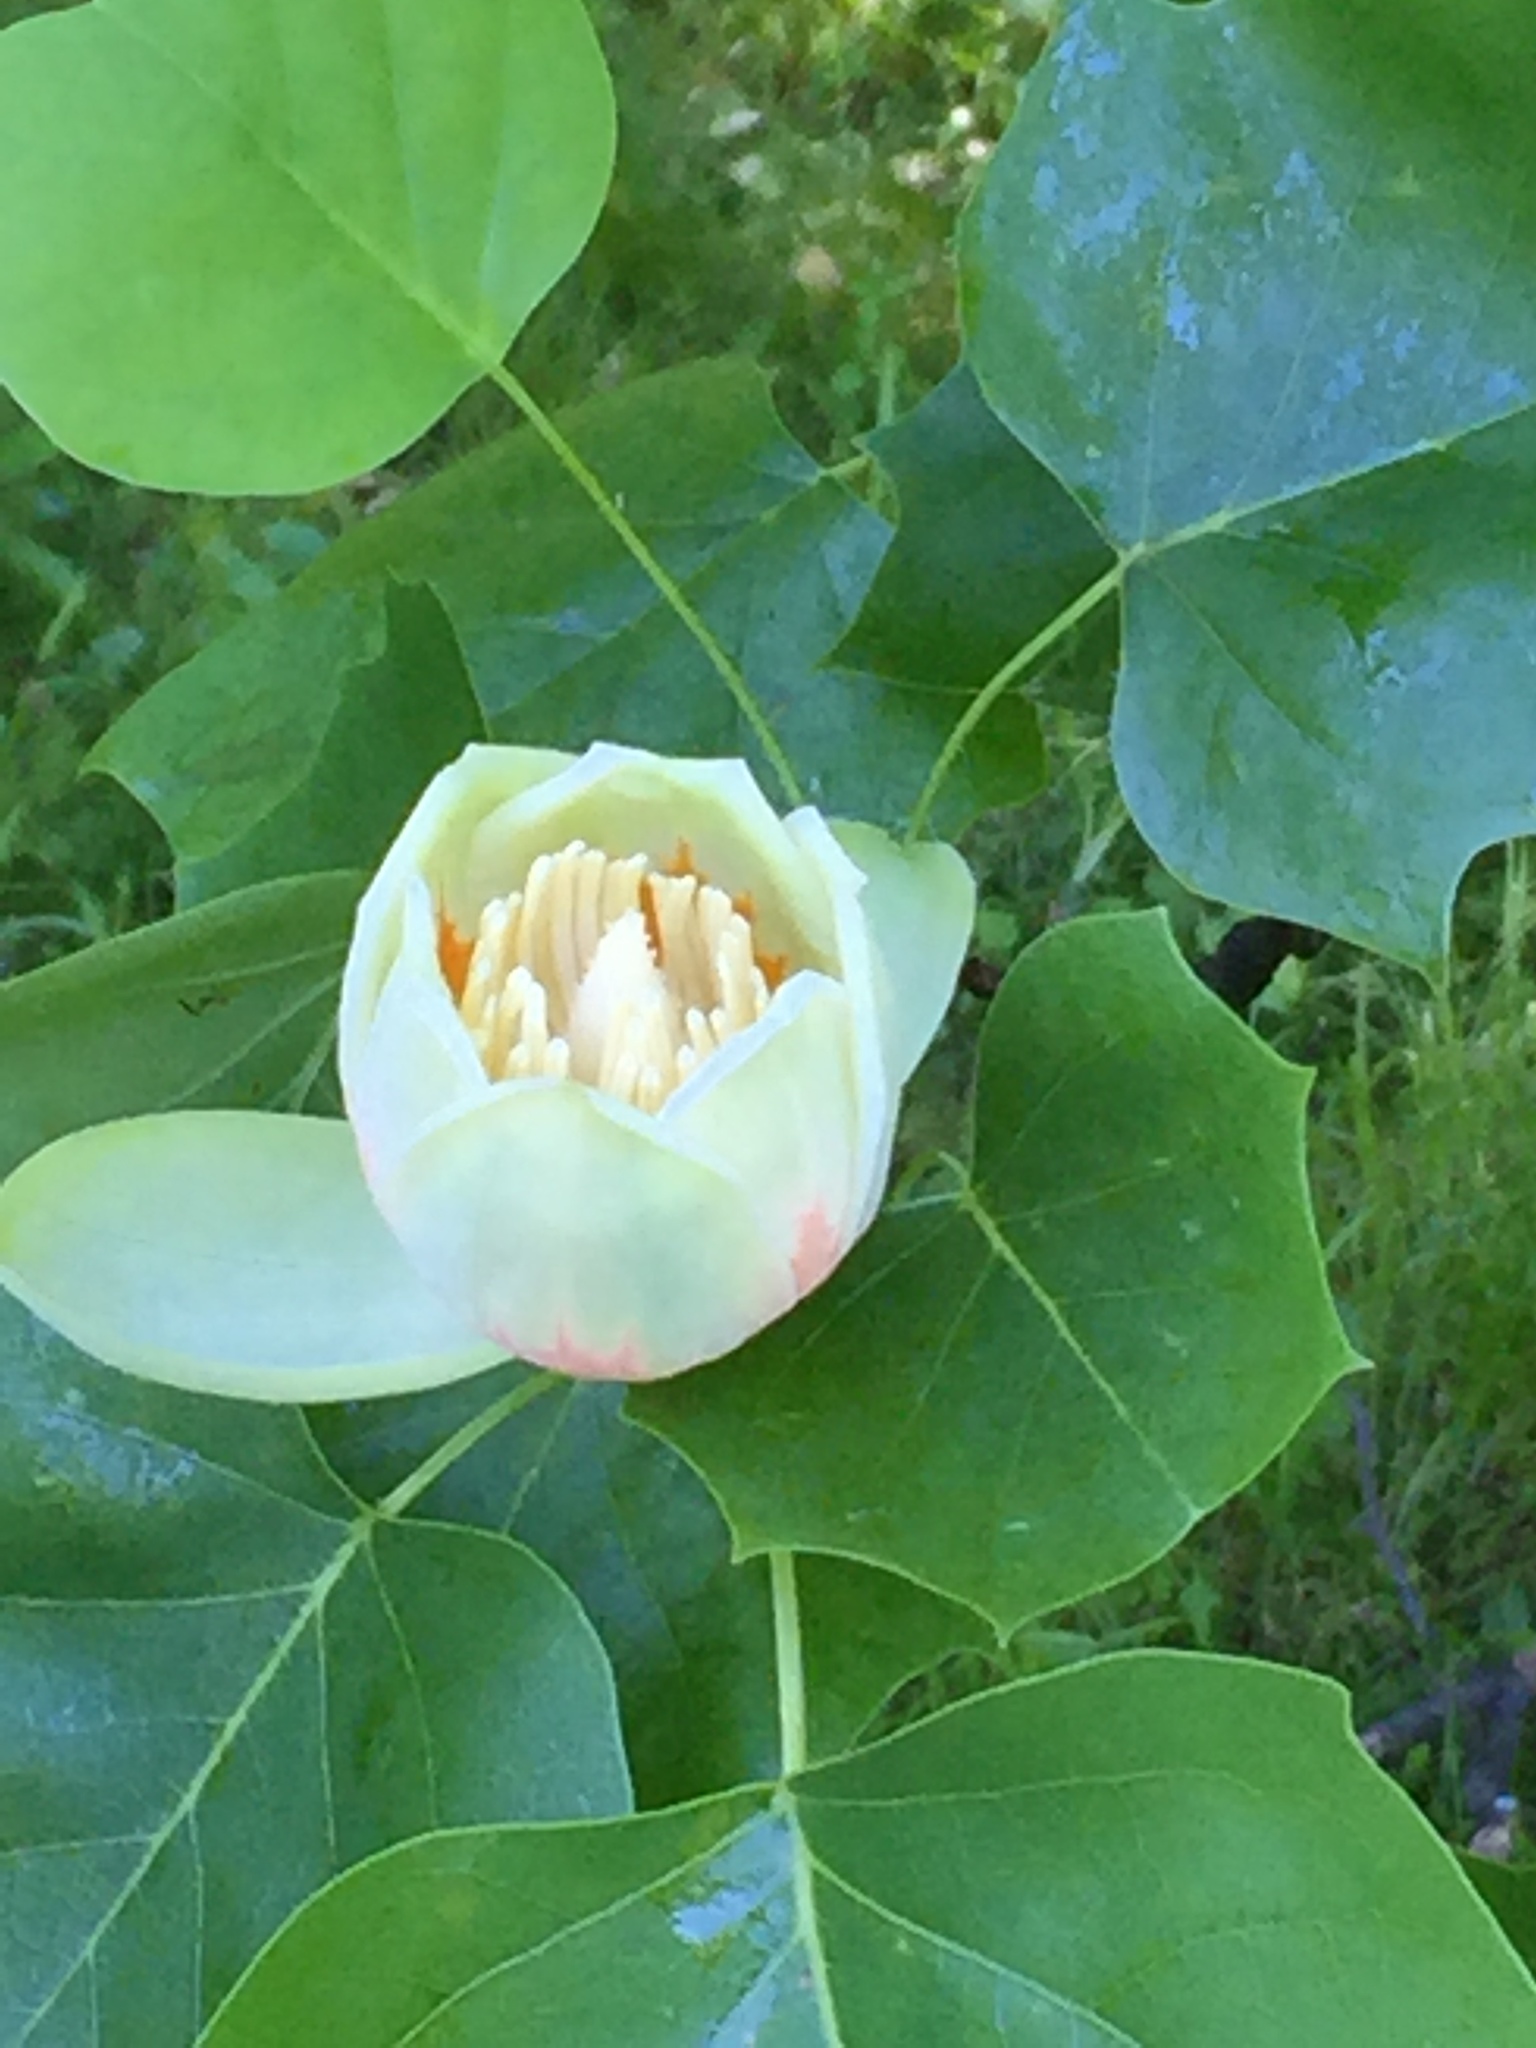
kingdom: Plantae
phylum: Tracheophyta
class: Magnoliopsida
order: Magnoliales
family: Magnoliaceae
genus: Liriodendron
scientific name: Liriodendron tulipifera
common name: Tulip tree
